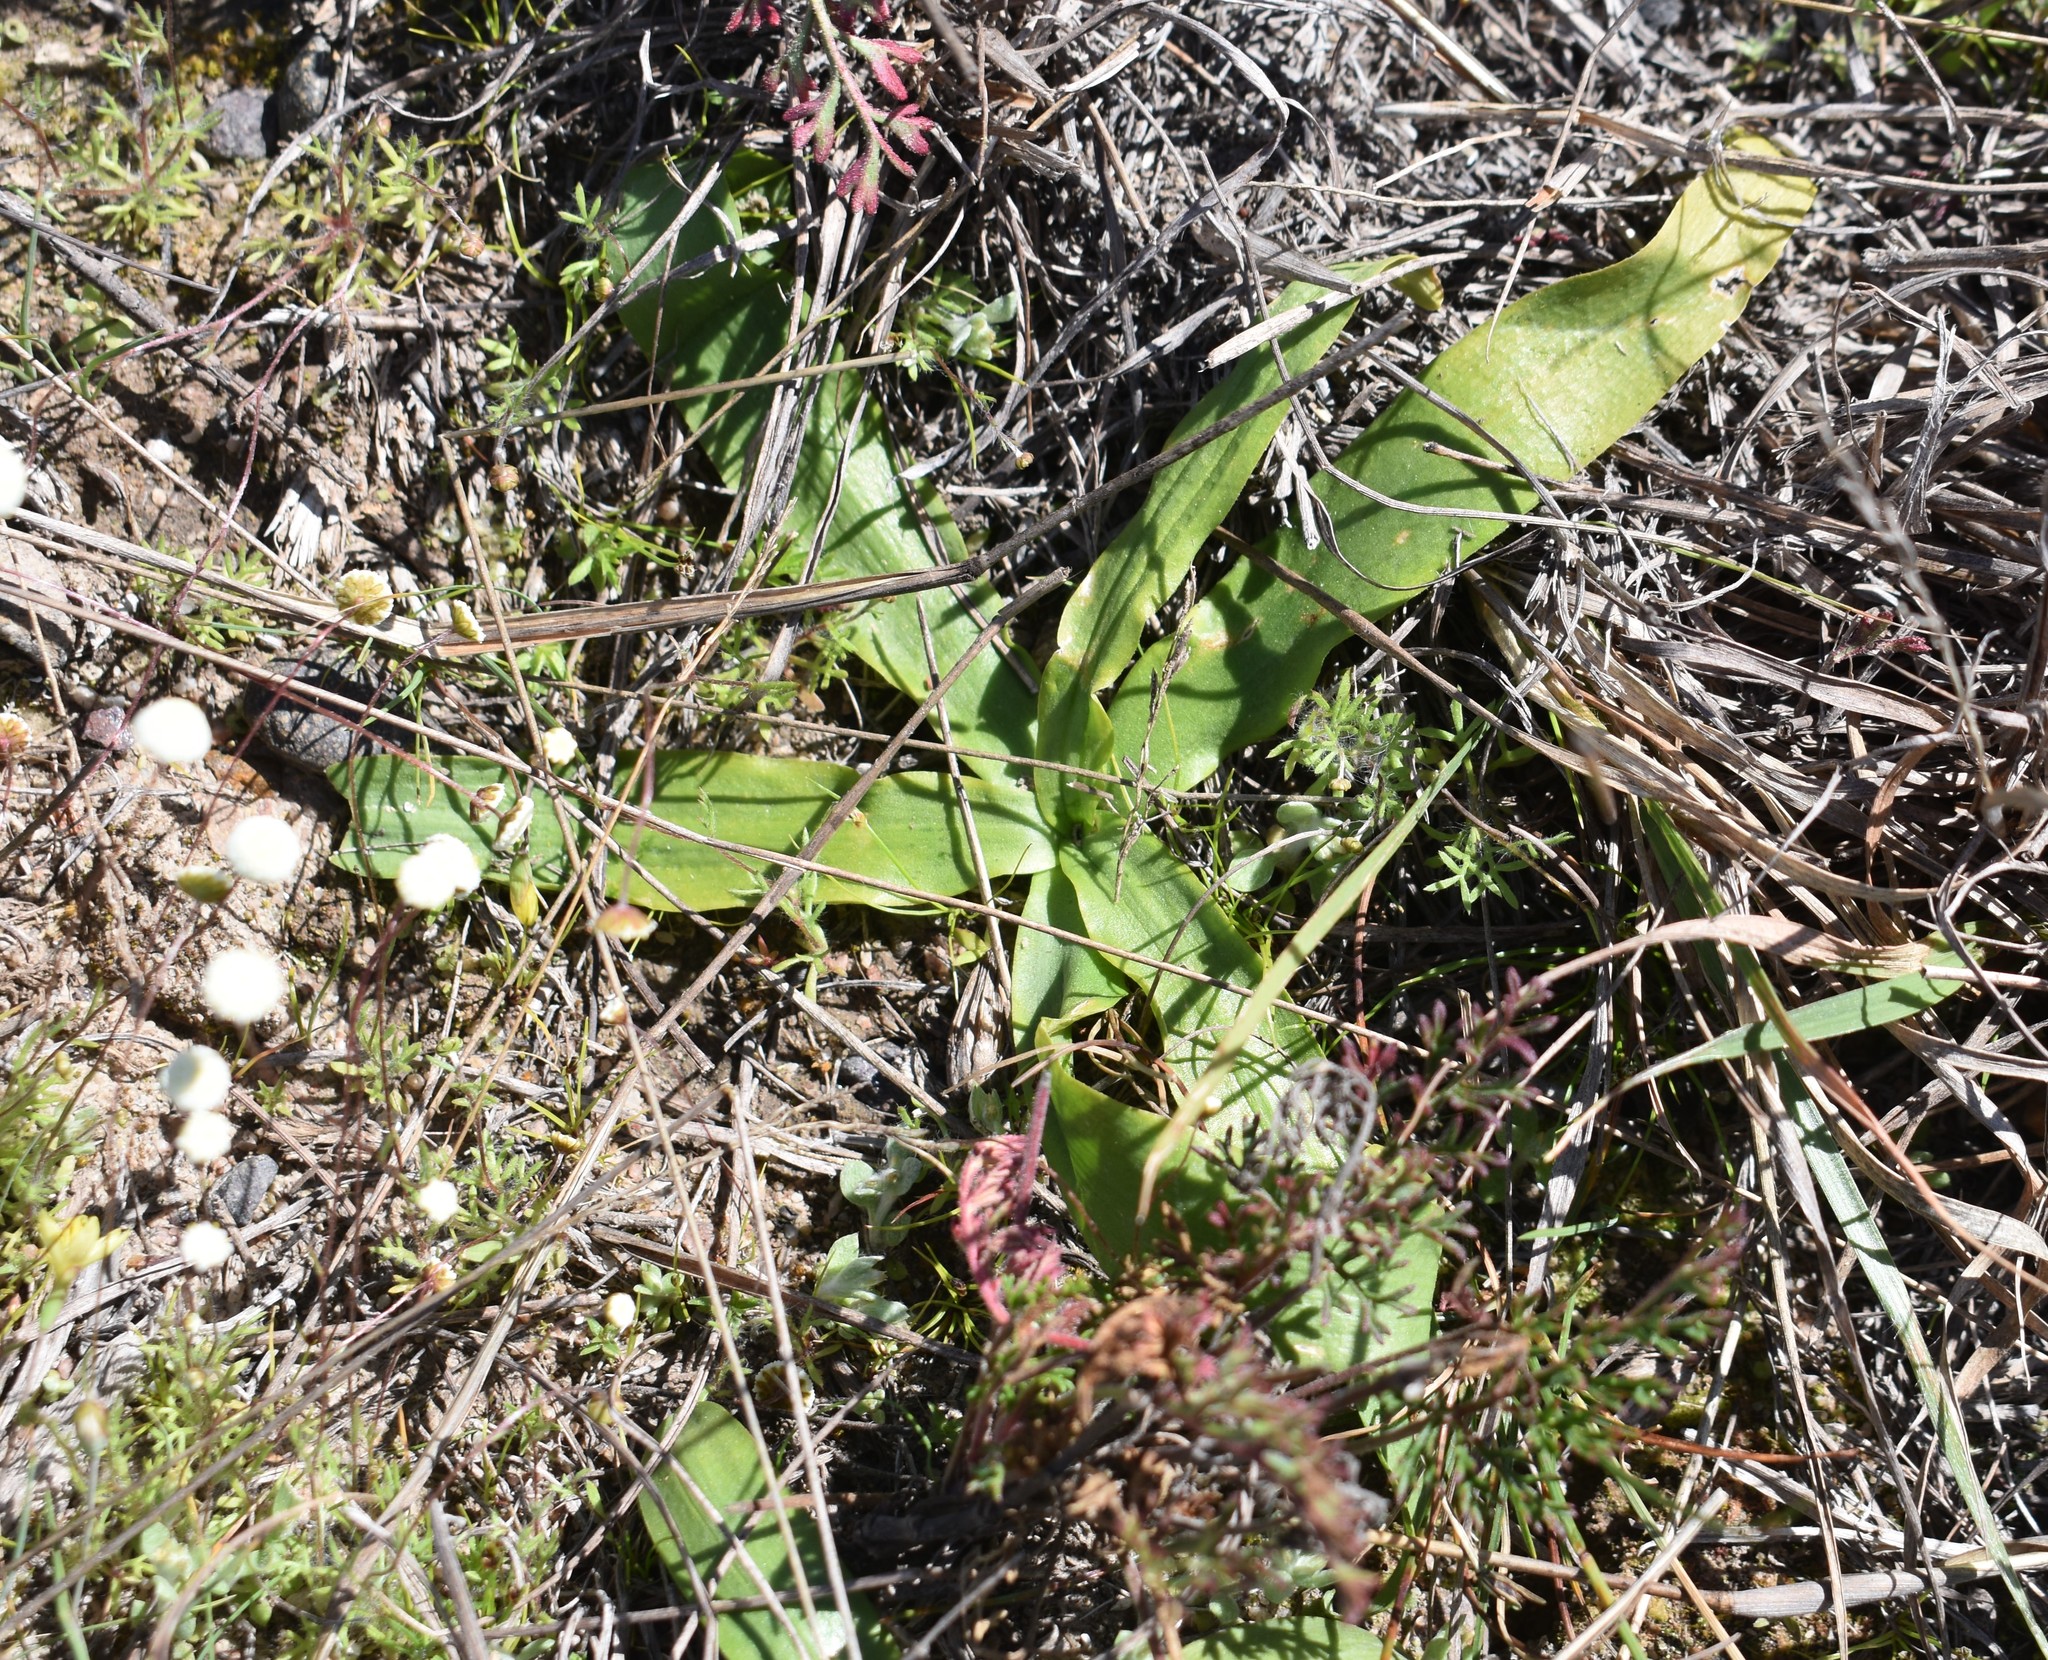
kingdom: Plantae
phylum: Tracheophyta
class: Liliopsida
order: Asparagales
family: Orchidaceae
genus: Pterygodium
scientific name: Pterygodium inversum
